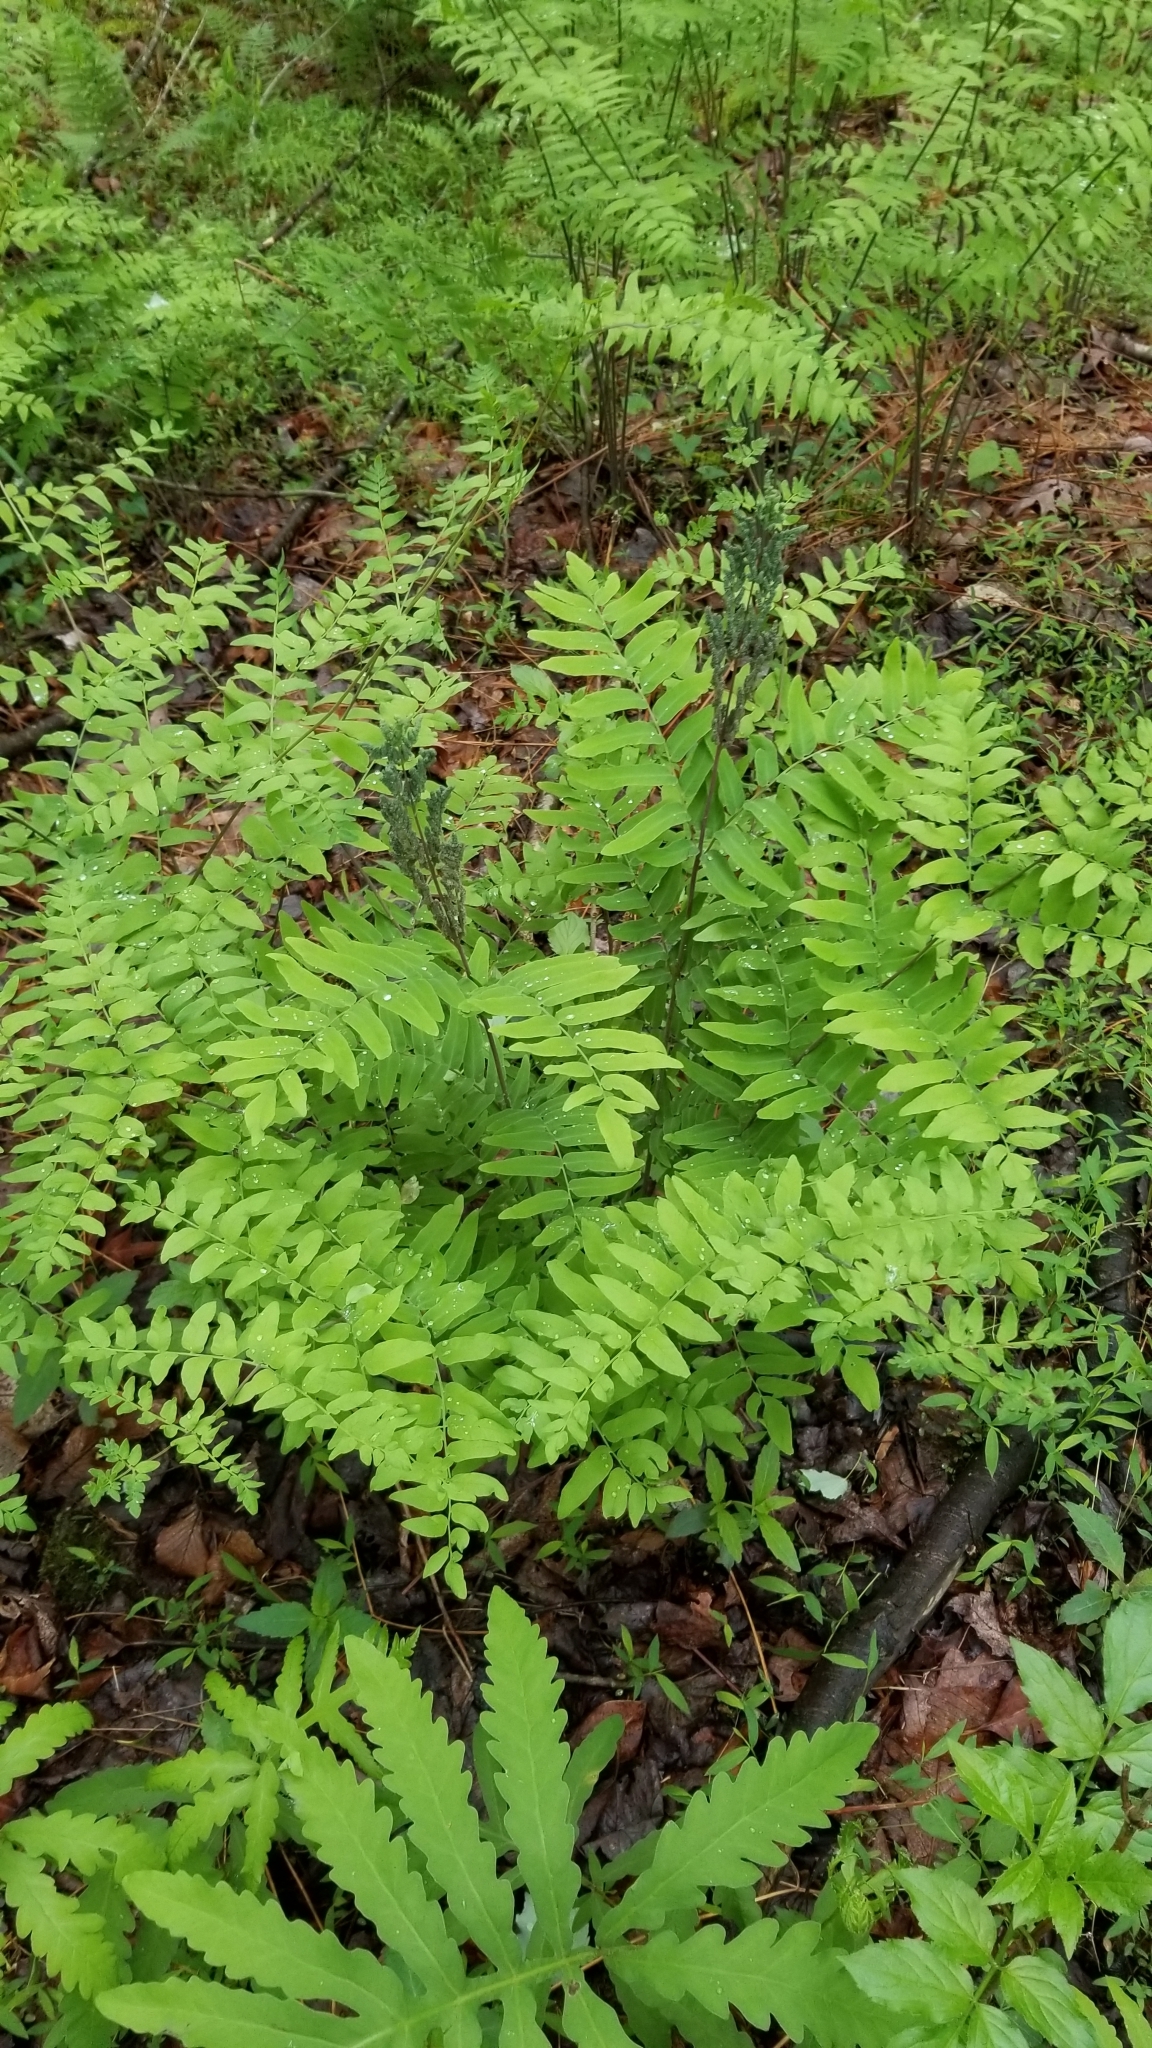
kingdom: Plantae
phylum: Tracheophyta
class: Polypodiopsida
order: Osmundales
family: Osmundaceae
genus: Osmunda
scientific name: Osmunda spectabilis
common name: American royal fern
